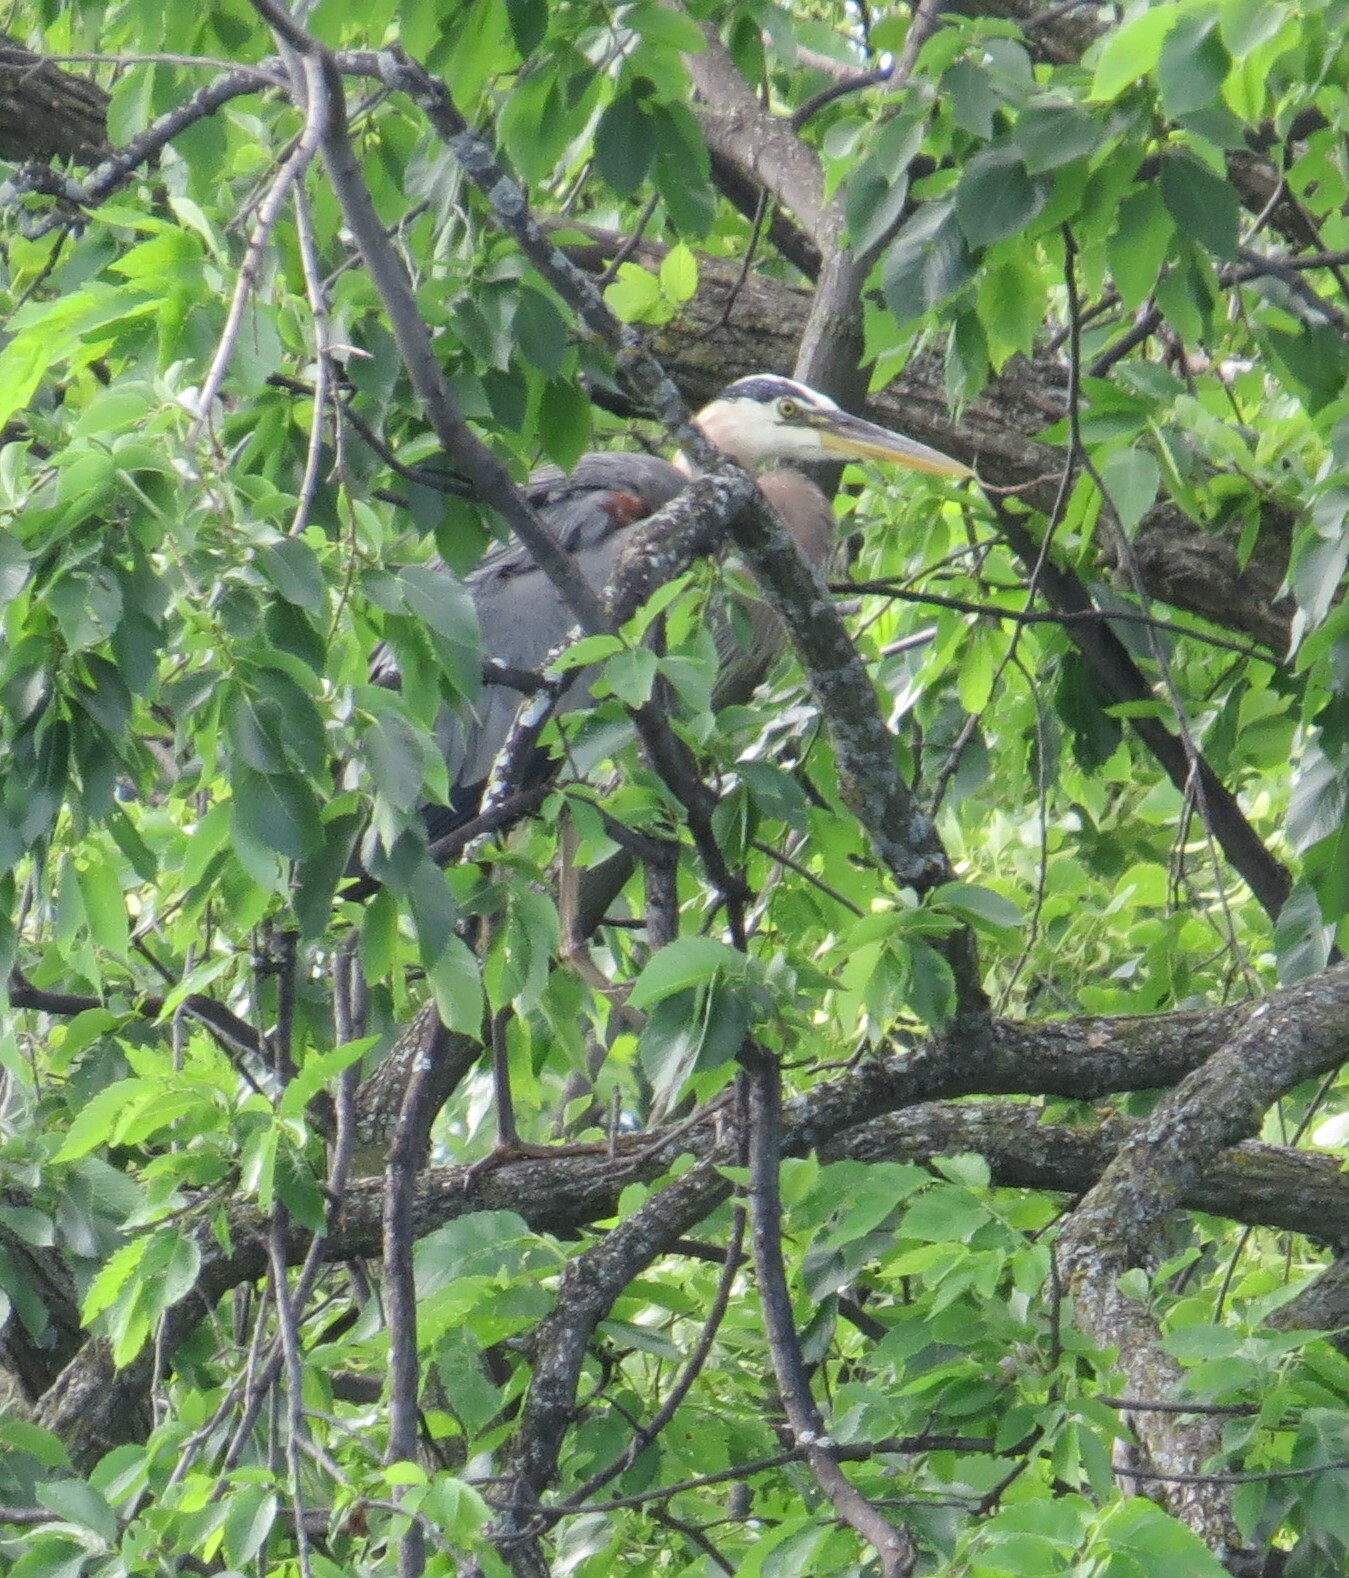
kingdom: Animalia
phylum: Chordata
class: Aves
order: Pelecaniformes
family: Ardeidae
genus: Ardea
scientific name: Ardea herodias
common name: Great blue heron
